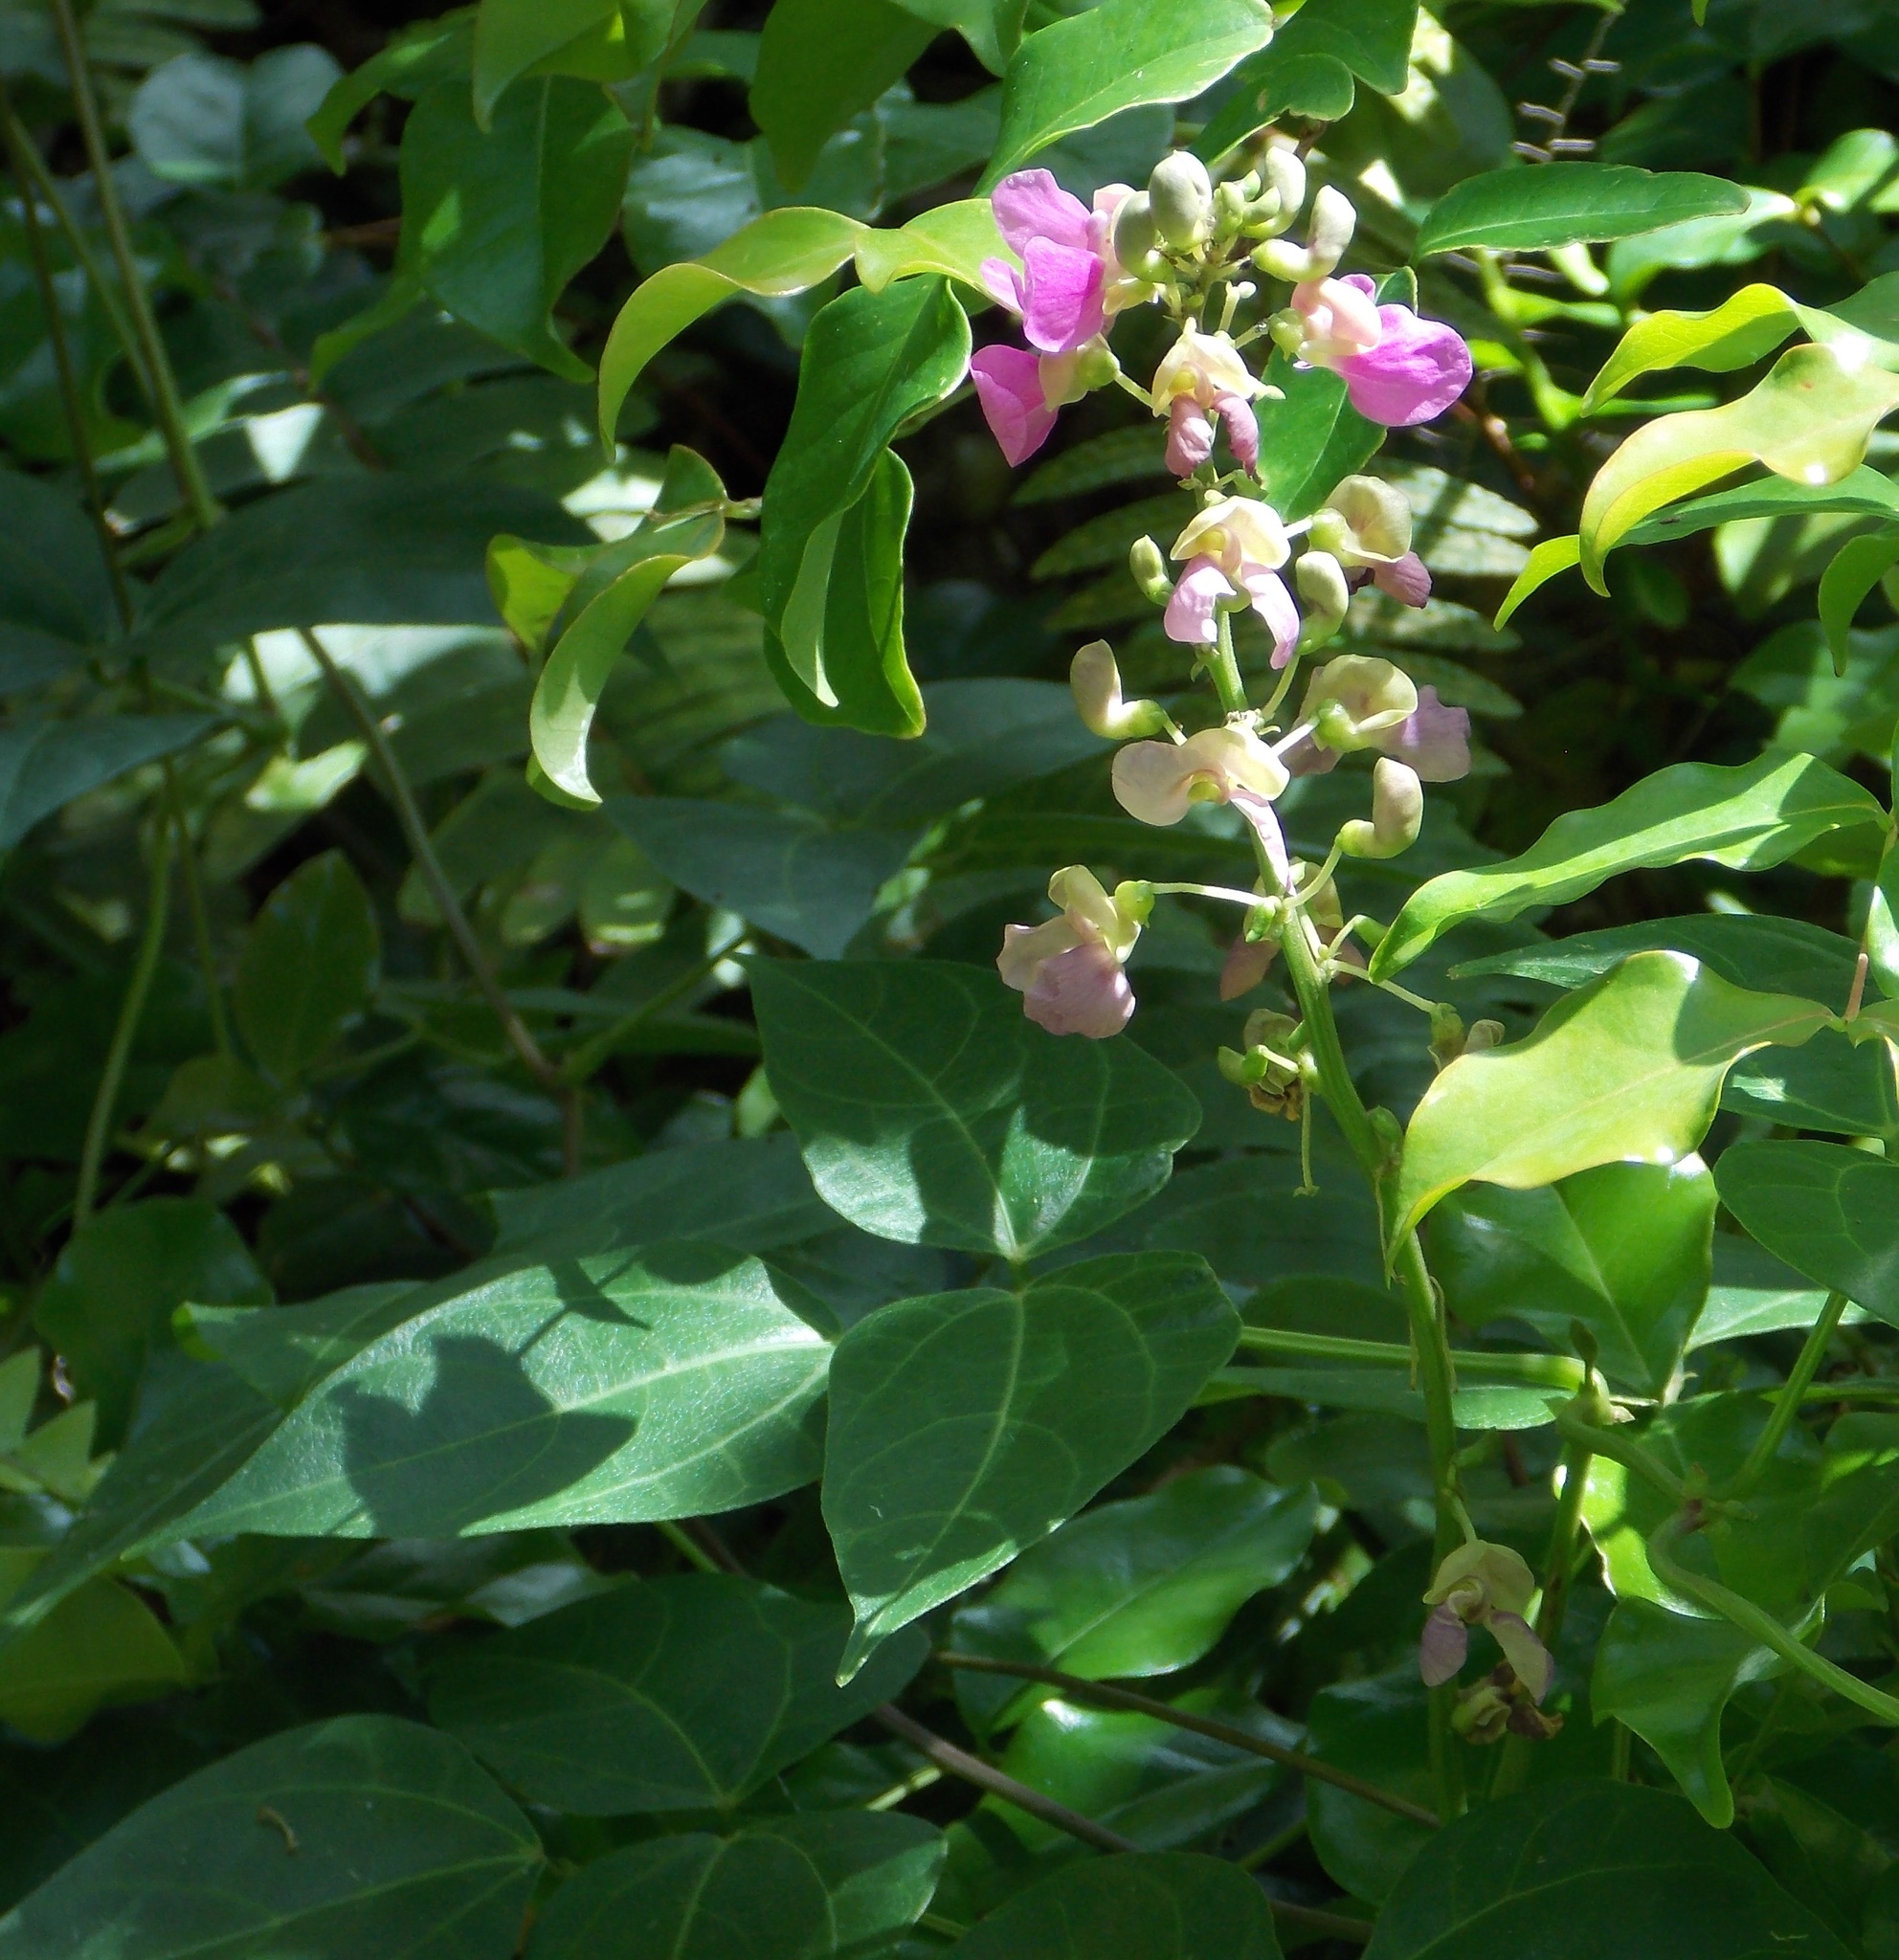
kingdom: Plantae
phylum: Tracheophyta
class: Magnoliopsida
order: Fabales
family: Fabaceae
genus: Phaseolus
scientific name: Phaseolus lignosus
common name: Bermuda bean
